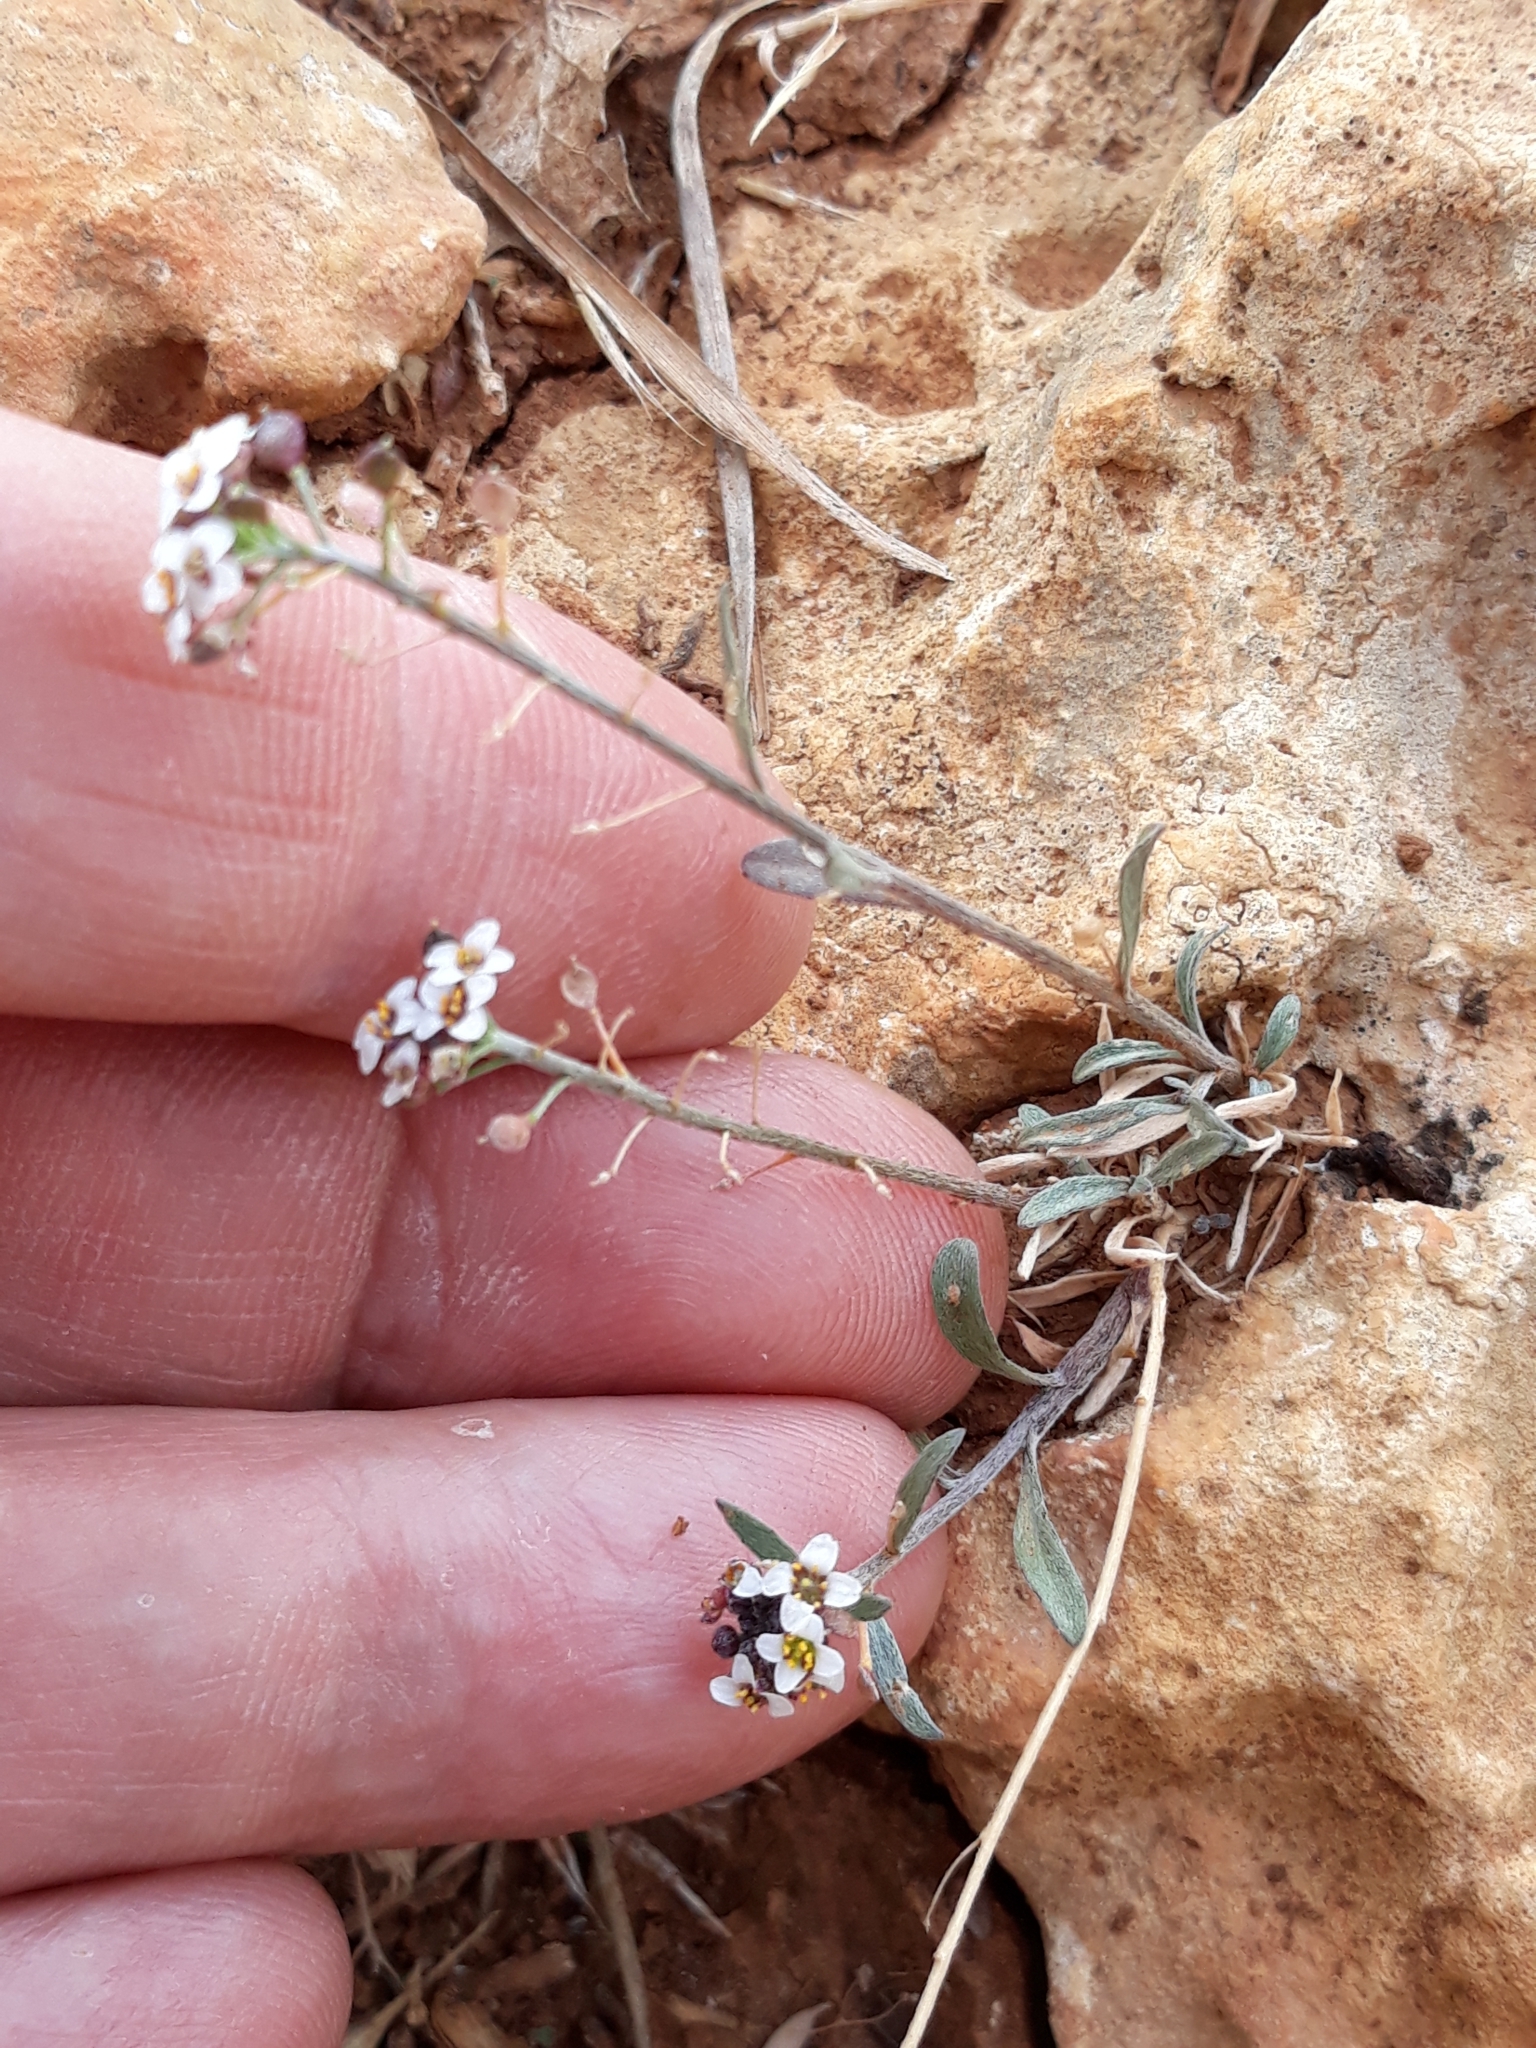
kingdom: Plantae
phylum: Tracheophyta
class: Magnoliopsida
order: Brassicales
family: Brassicaceae
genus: Lobularia
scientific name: Lobularia maritima
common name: Sweet alison
